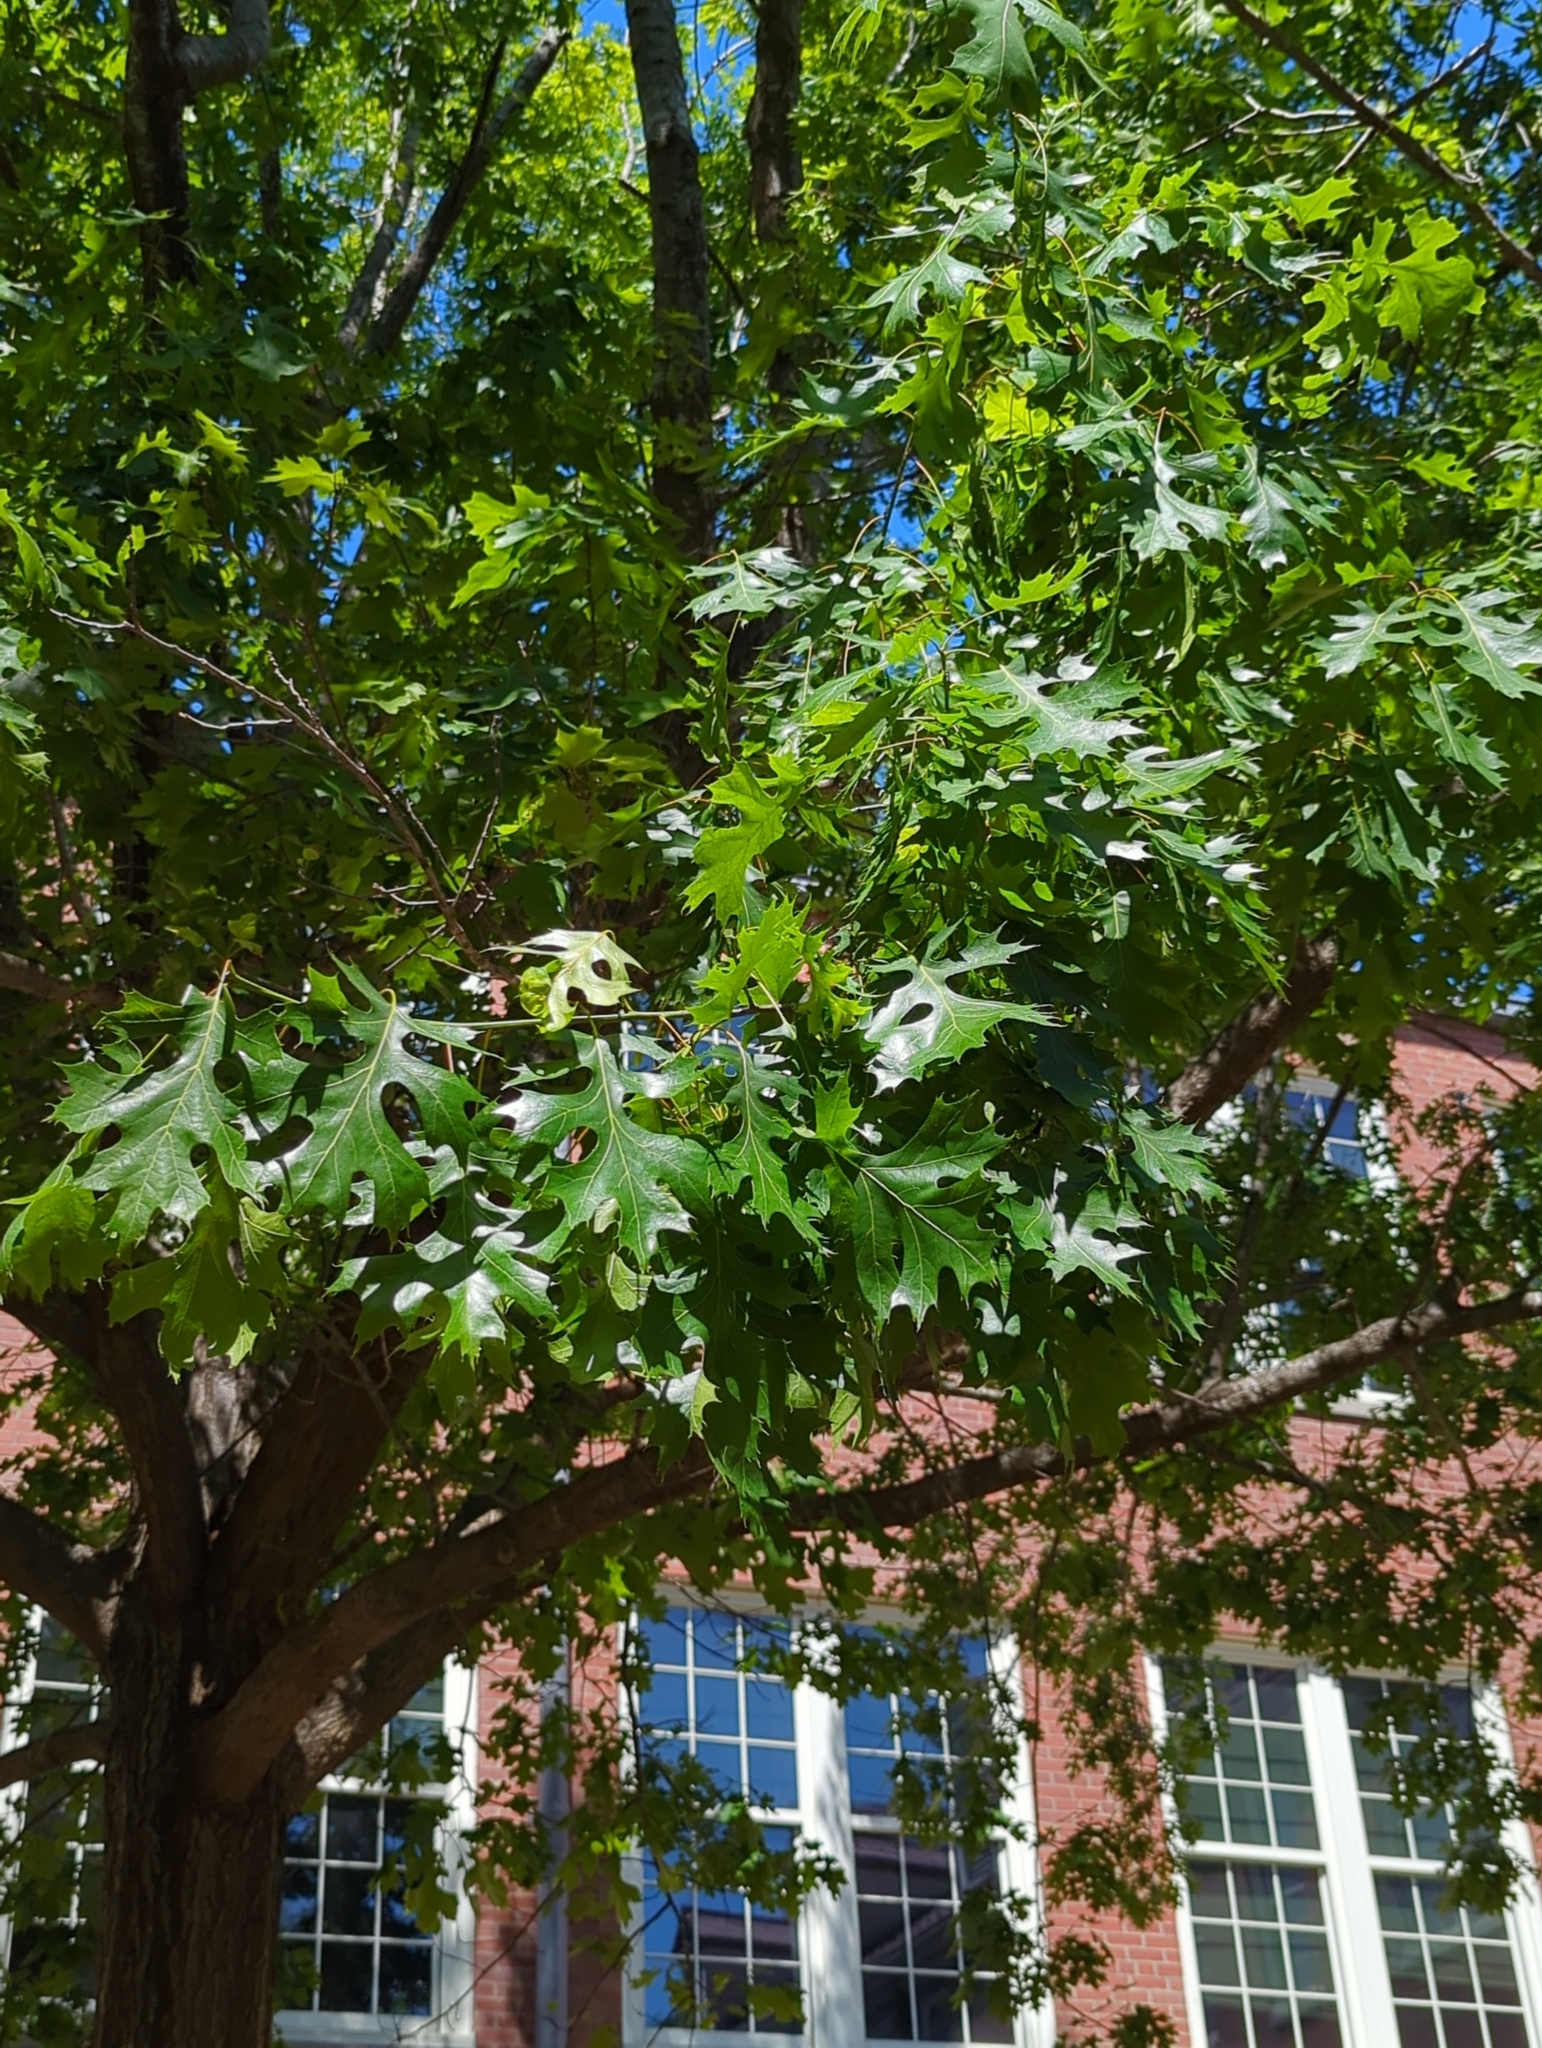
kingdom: Plantae
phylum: Tracheophyta
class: Magnoliopsida
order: Fagales
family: Fagaceae
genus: Quercus
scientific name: Quercus alba
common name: White oak
